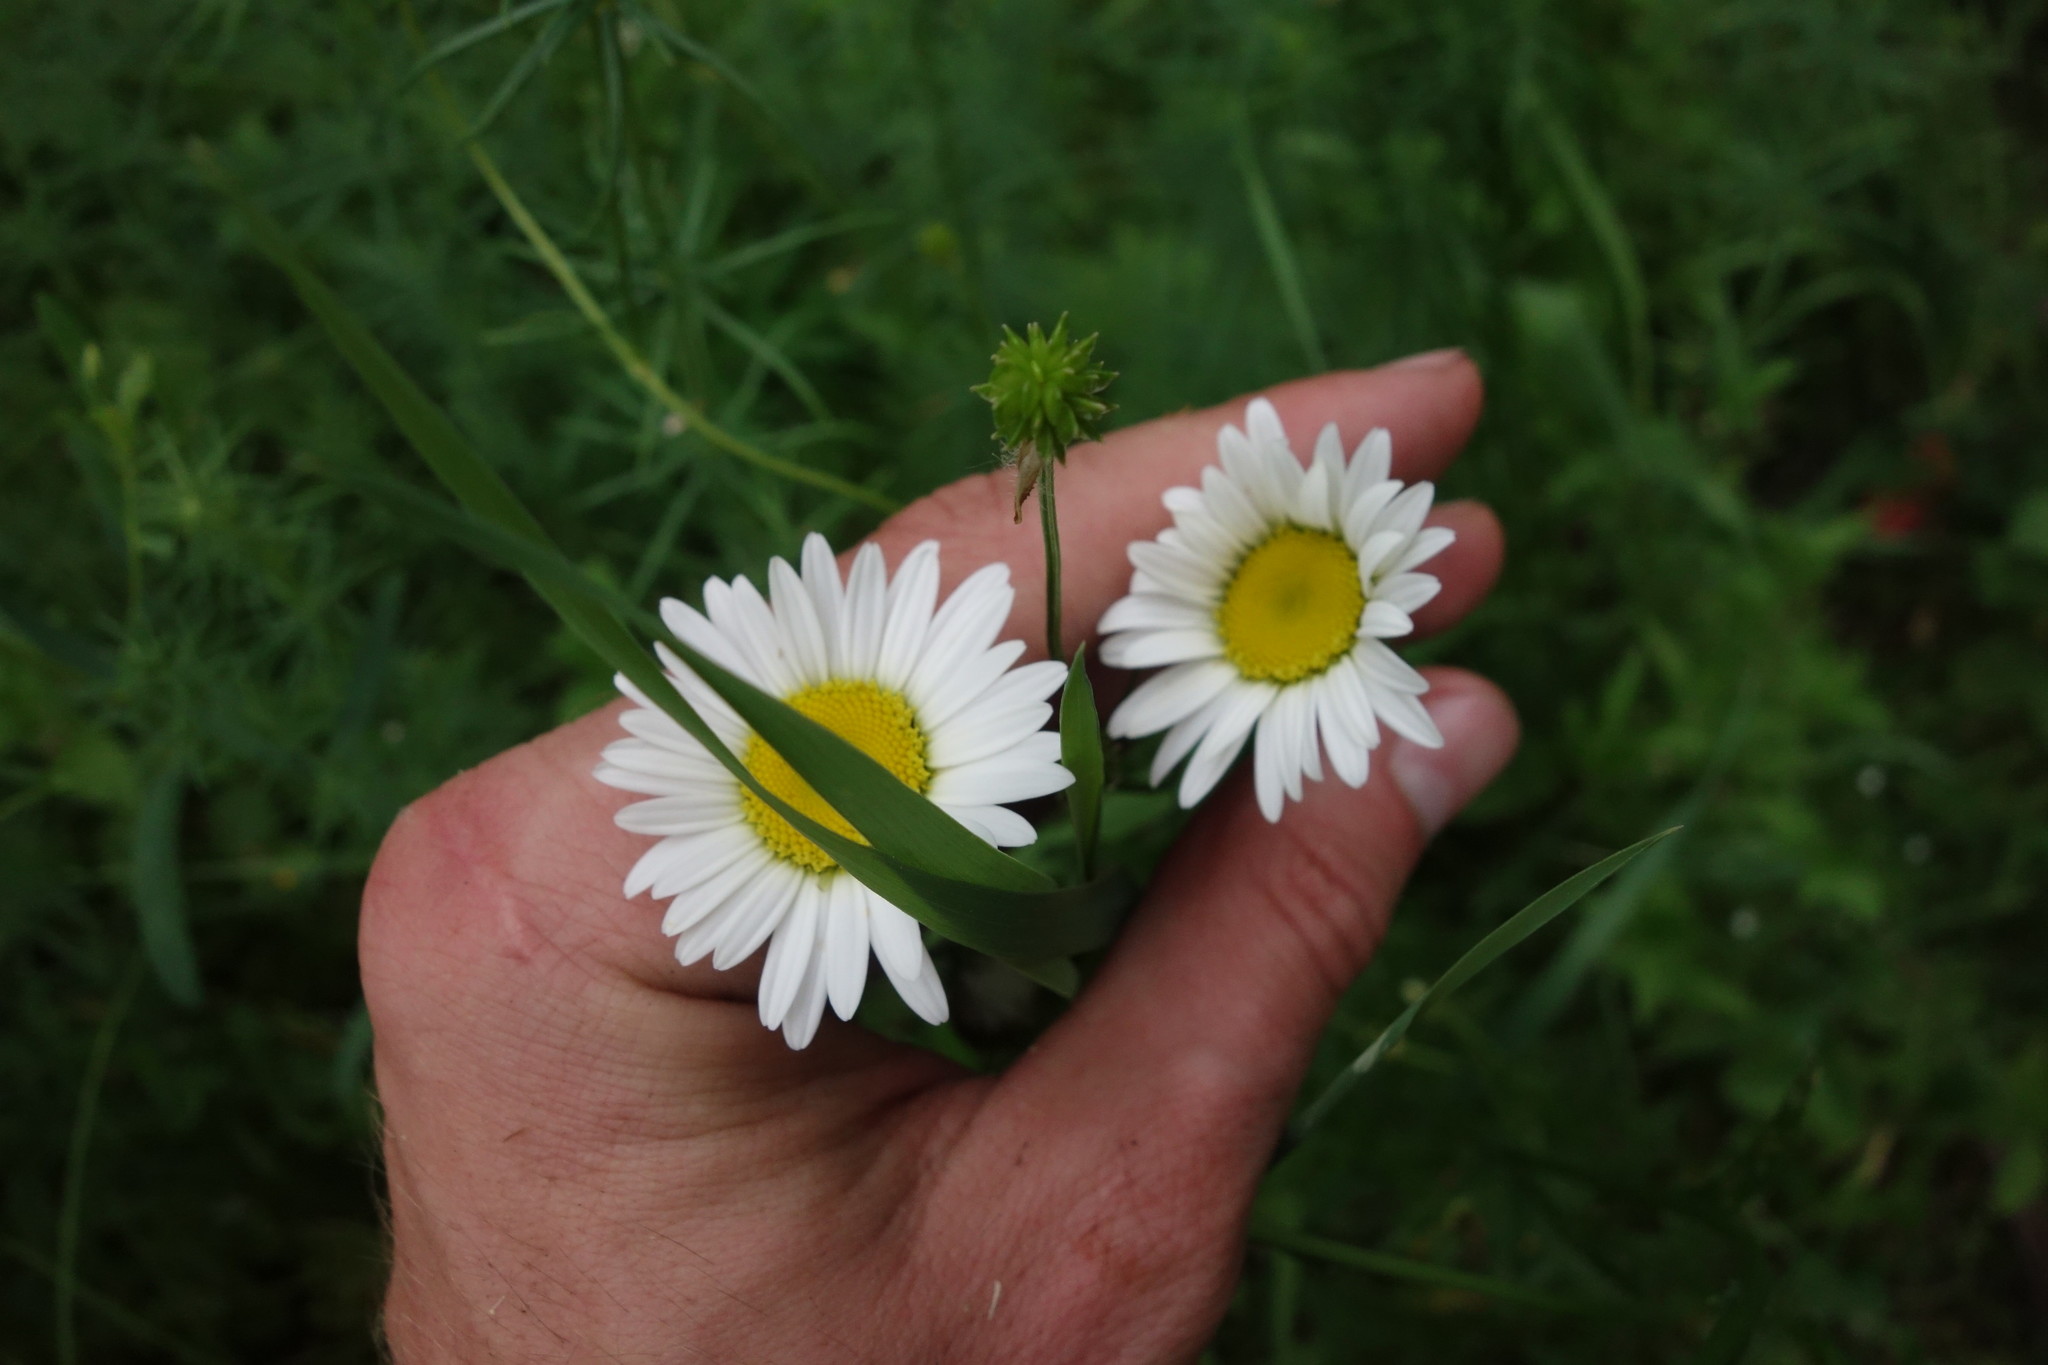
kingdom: Plantae
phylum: Tracheophyta
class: Magnoliopsida
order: Asterales
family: Asteraceae
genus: Leucanthemum
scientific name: Leucanthemum vulgare
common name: Oxeye daisy
